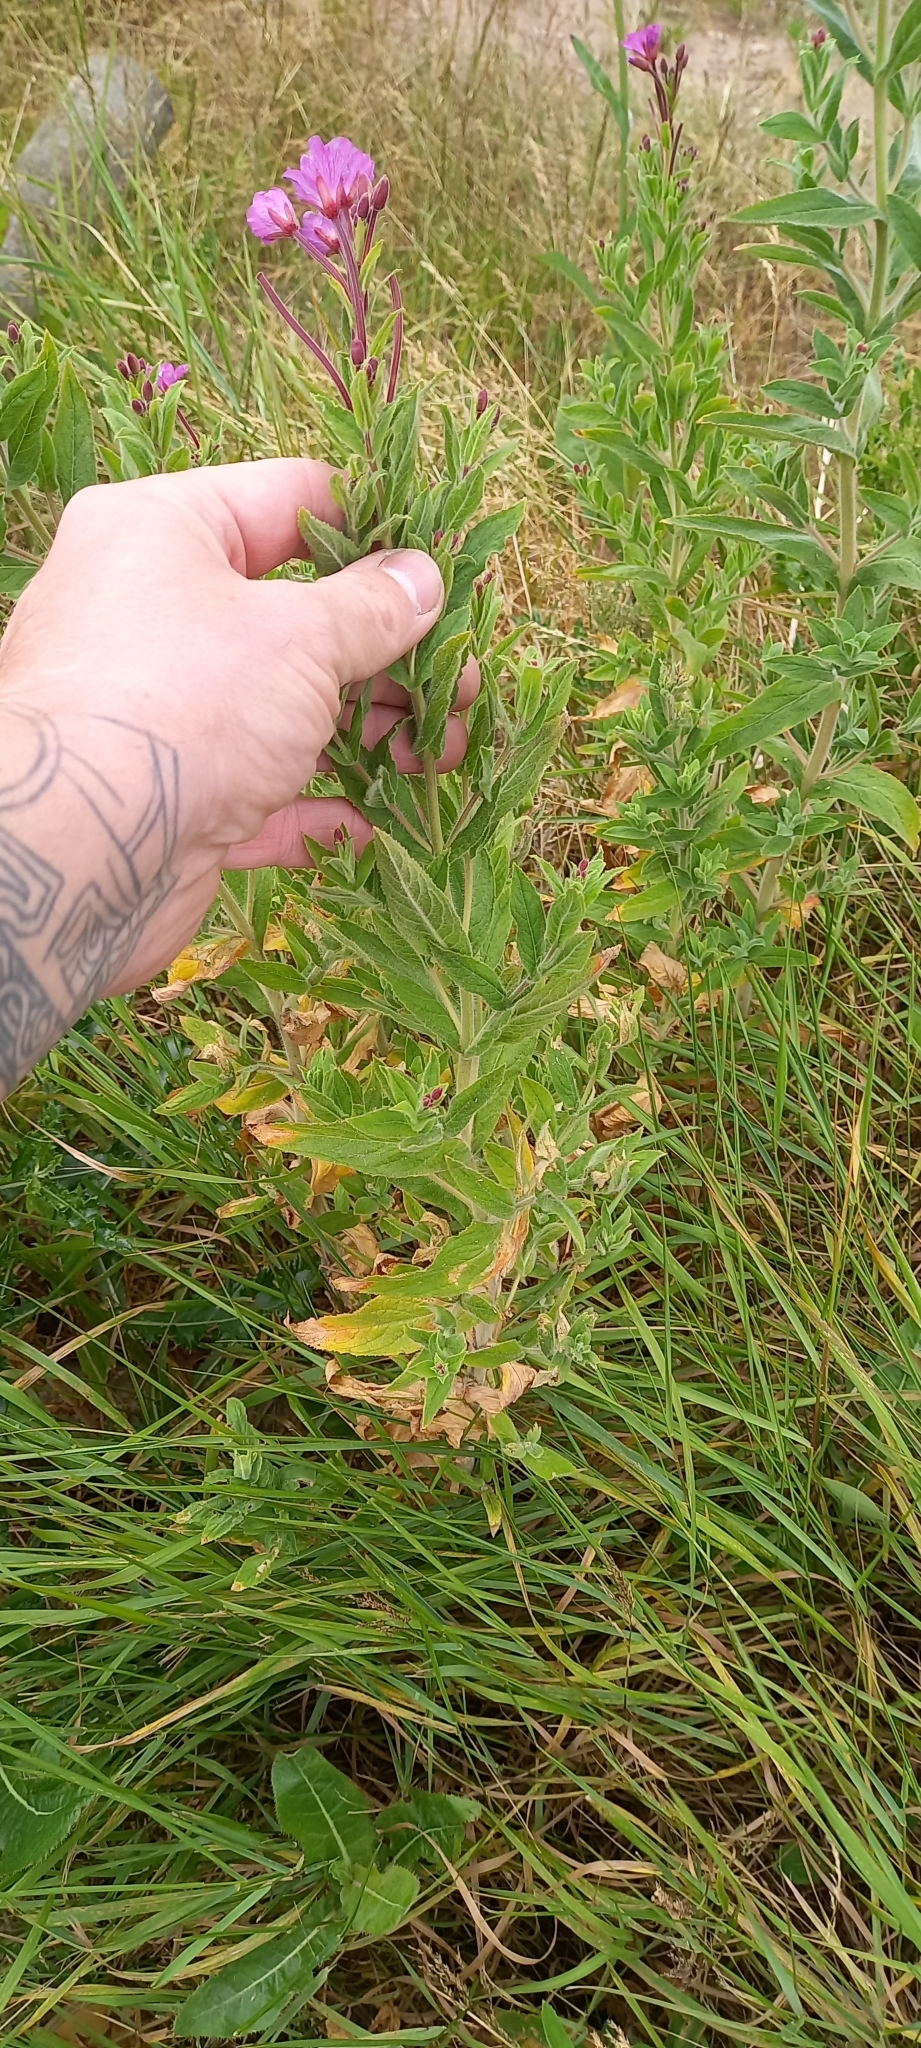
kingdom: Plantae
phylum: Tracheophyta
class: Magnoliopsida
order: Myrtales
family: Onagraceae
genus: Epilobium
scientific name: Epilobium hirsutum
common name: Great willowherb
